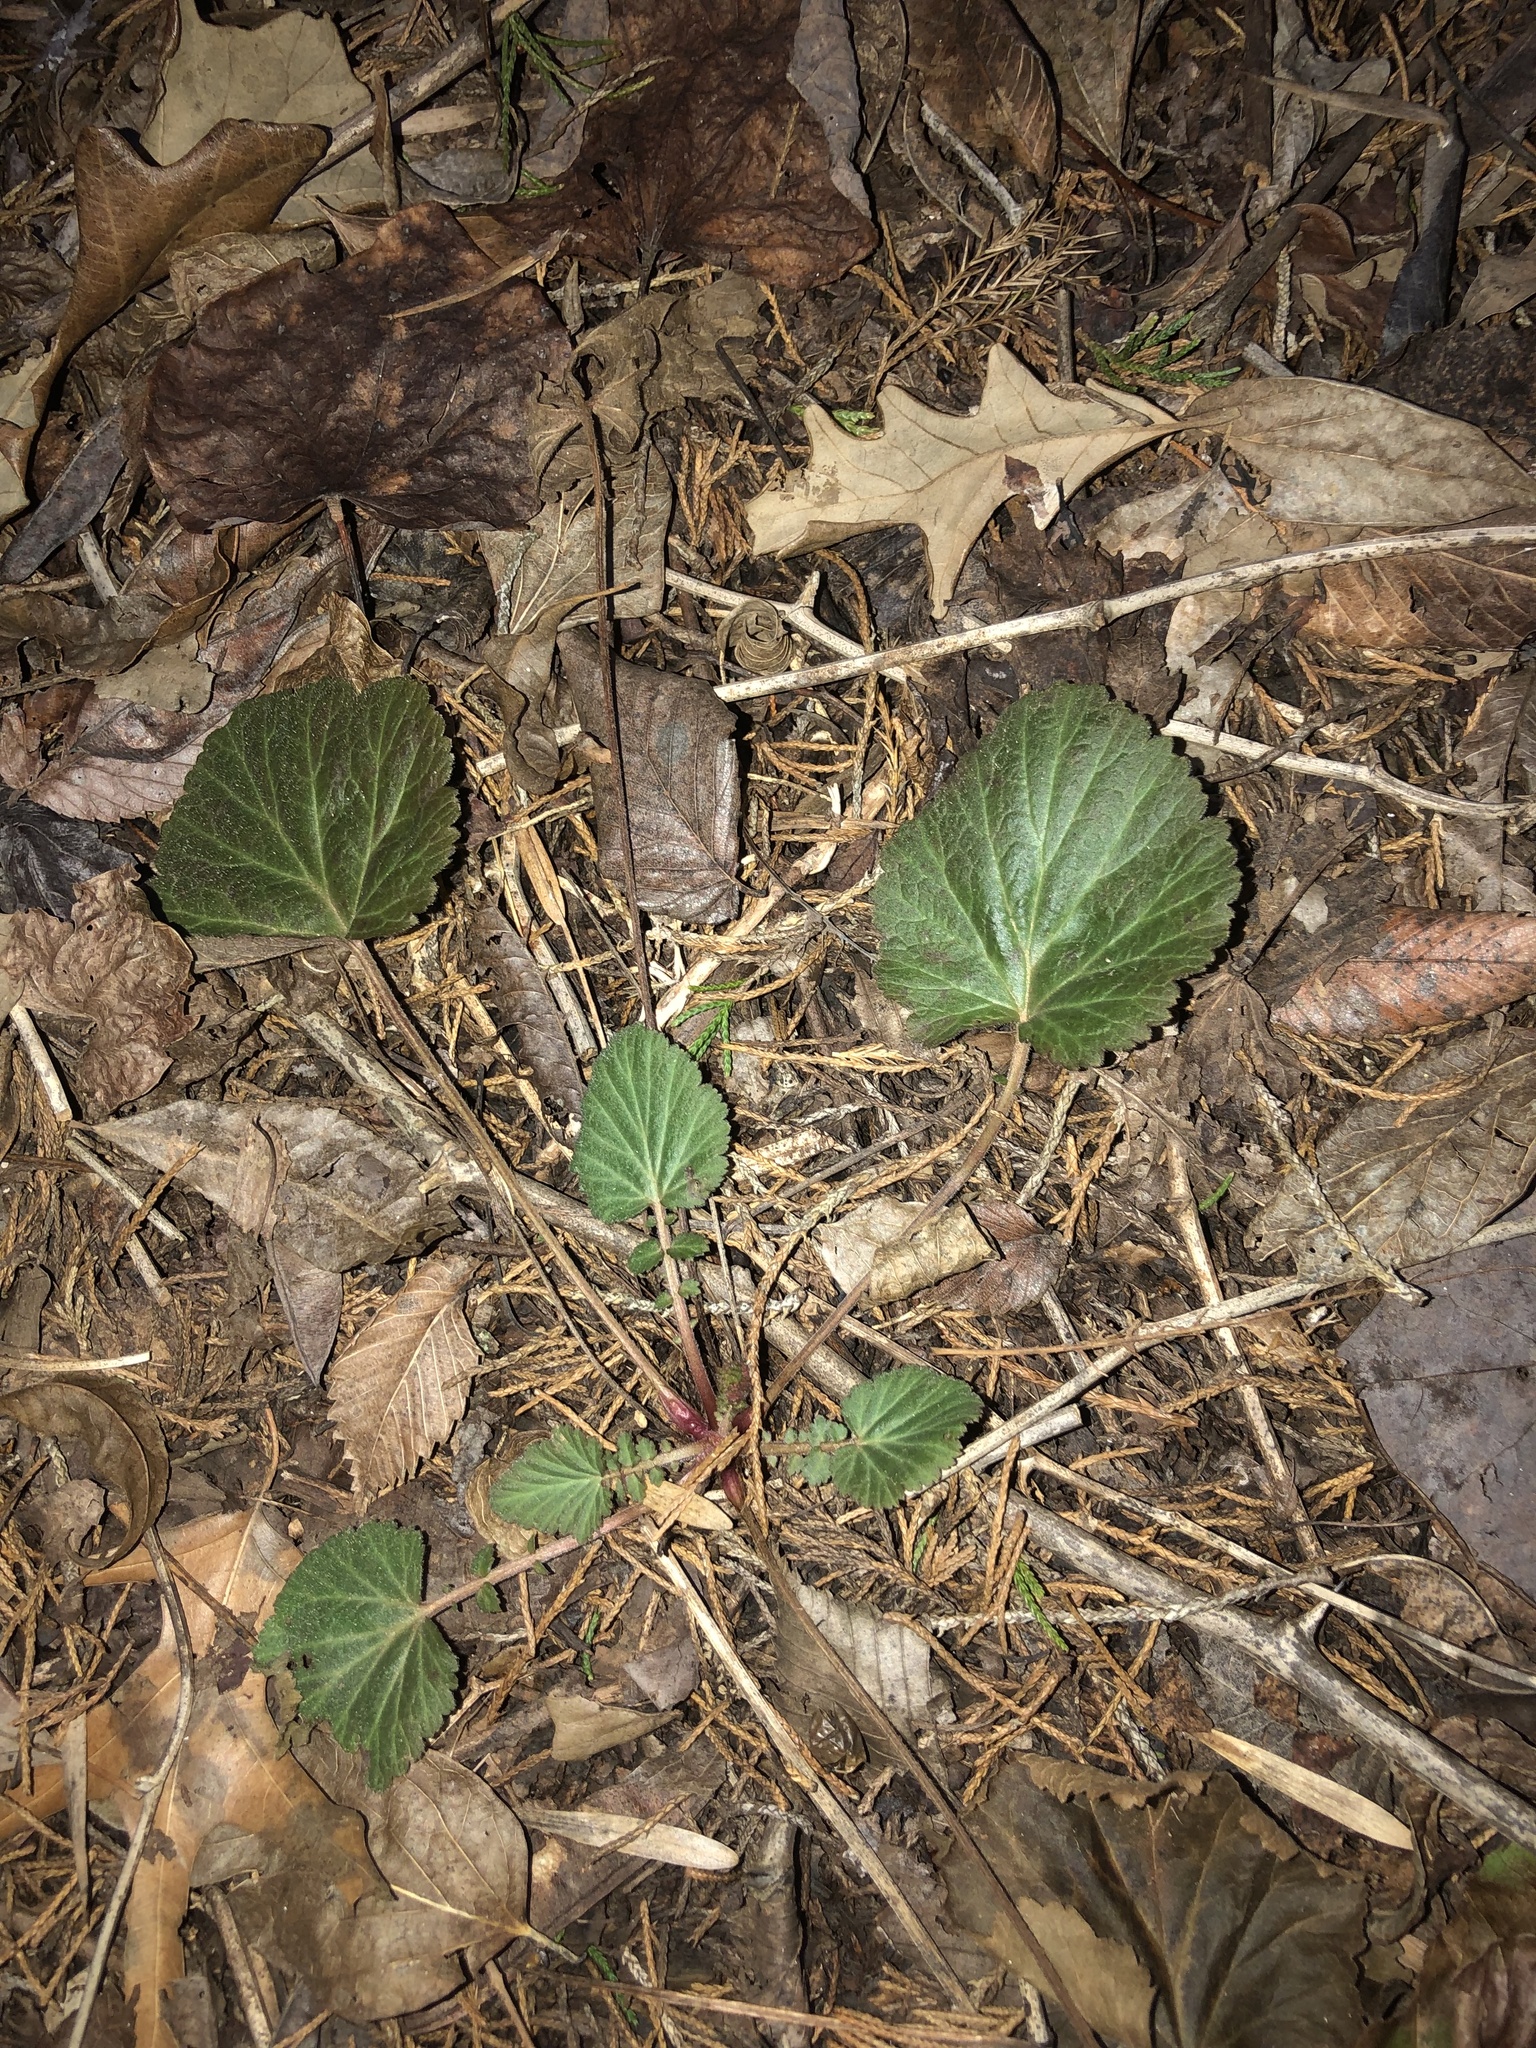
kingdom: Plantae
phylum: Tracheophyta
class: Magnoliopsida
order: Rosales
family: Rosaceae
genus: Geum
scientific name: Geum canadense
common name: White avens
